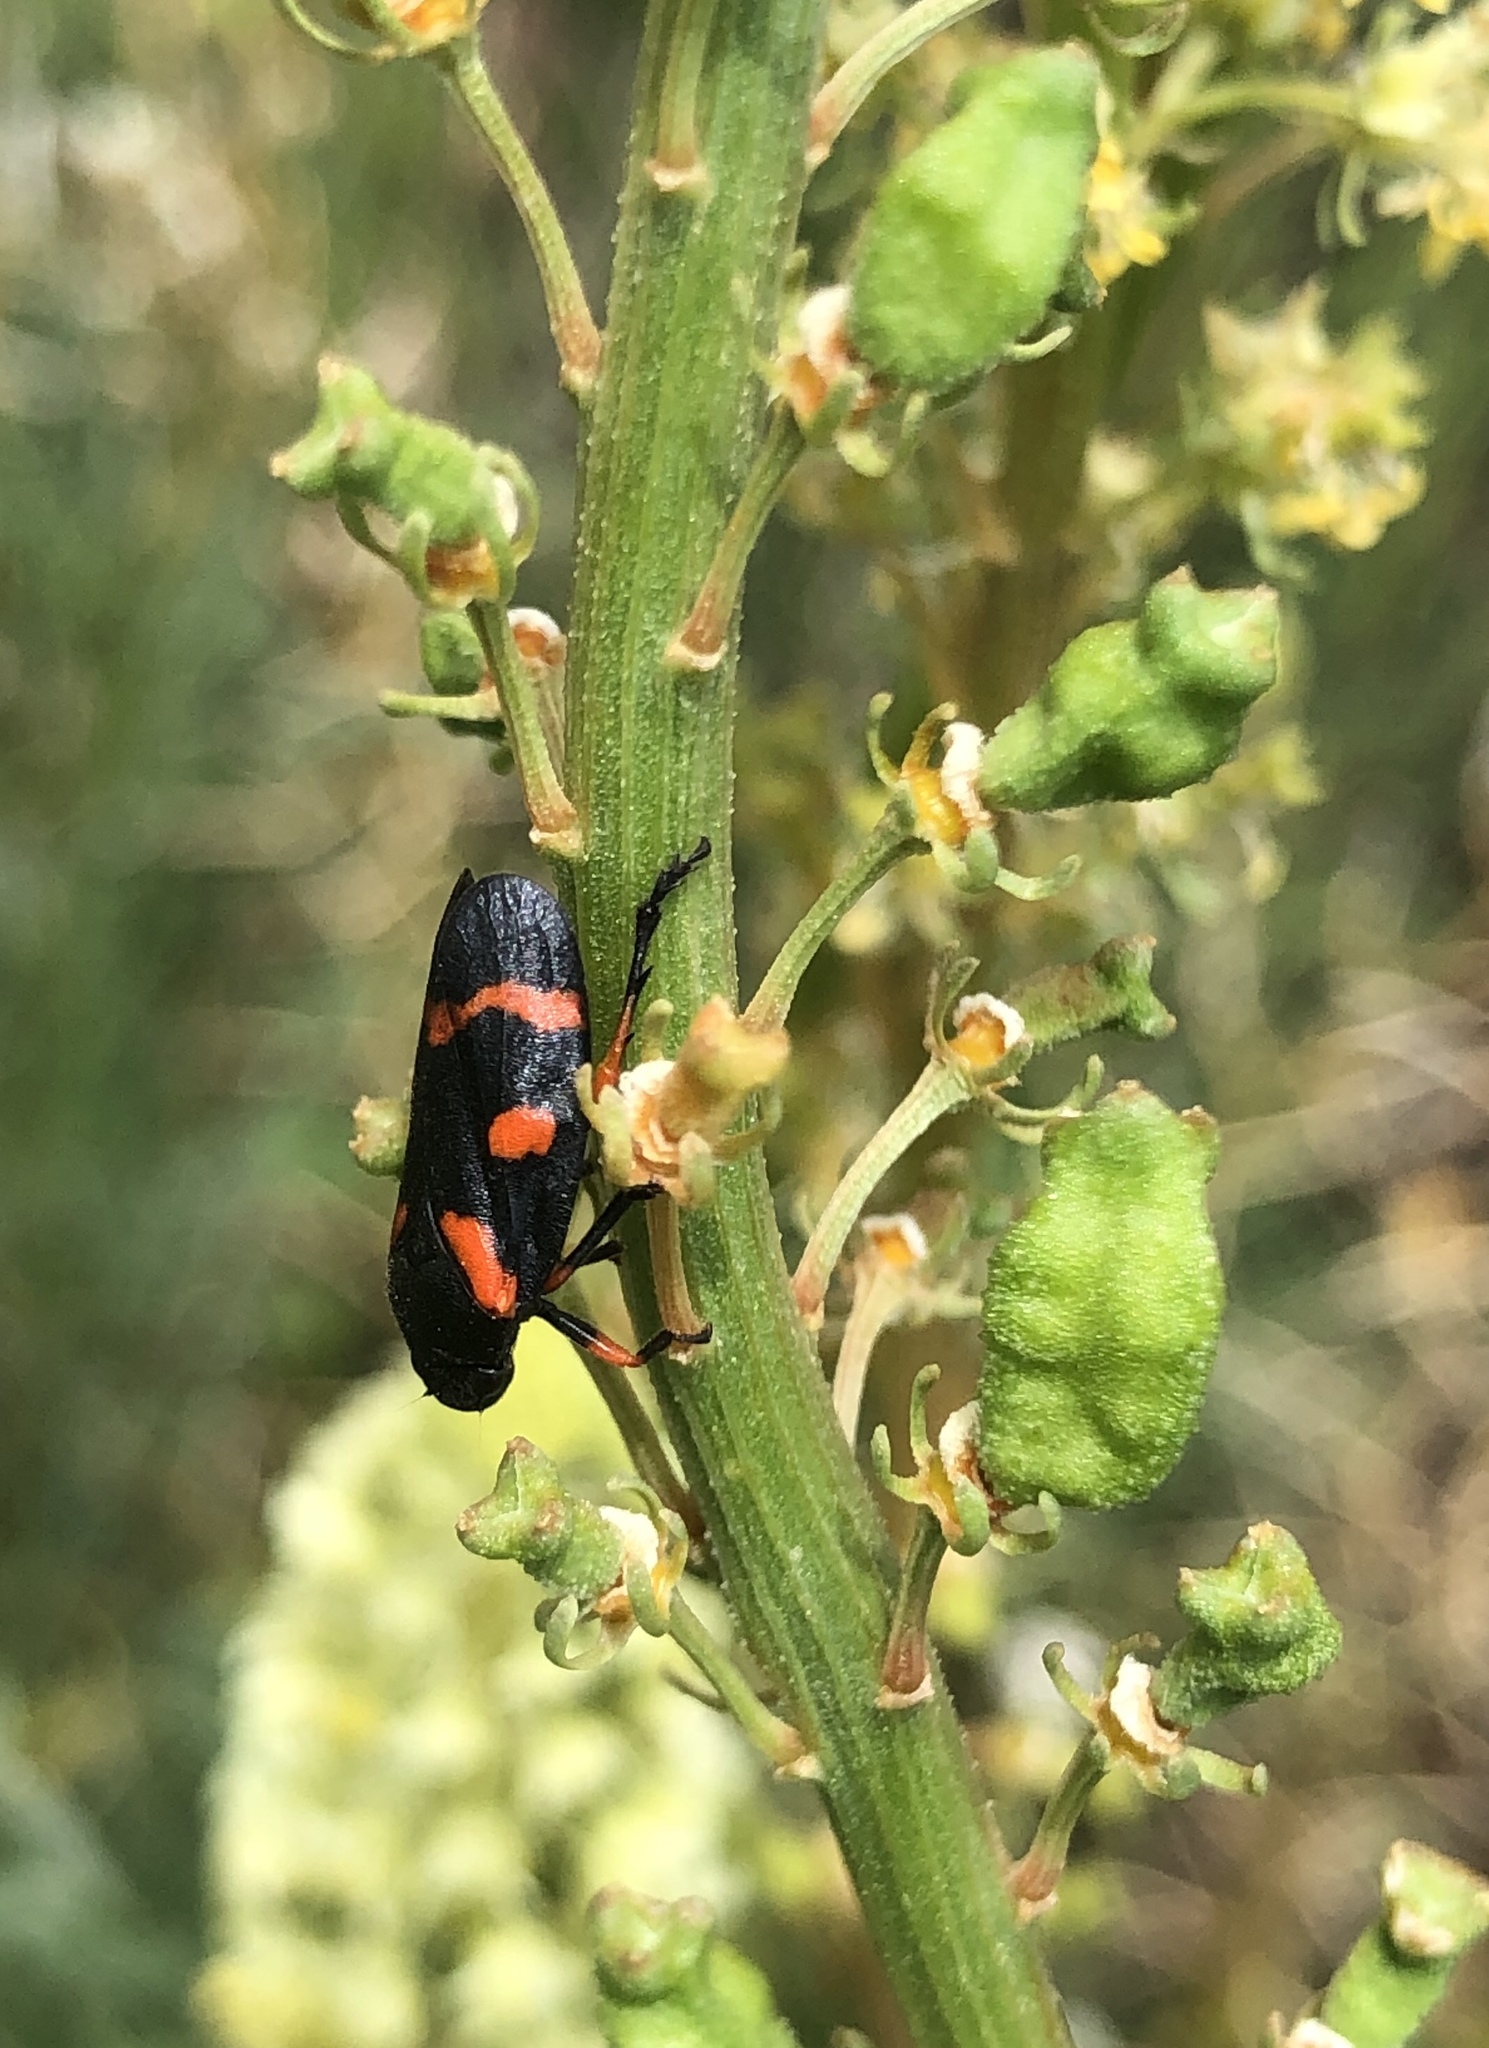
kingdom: Animalia
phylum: Arthropoda
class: Insecta
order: Hemiptera
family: Cercopidae
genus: Cercopis
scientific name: Cercopis intermedia
